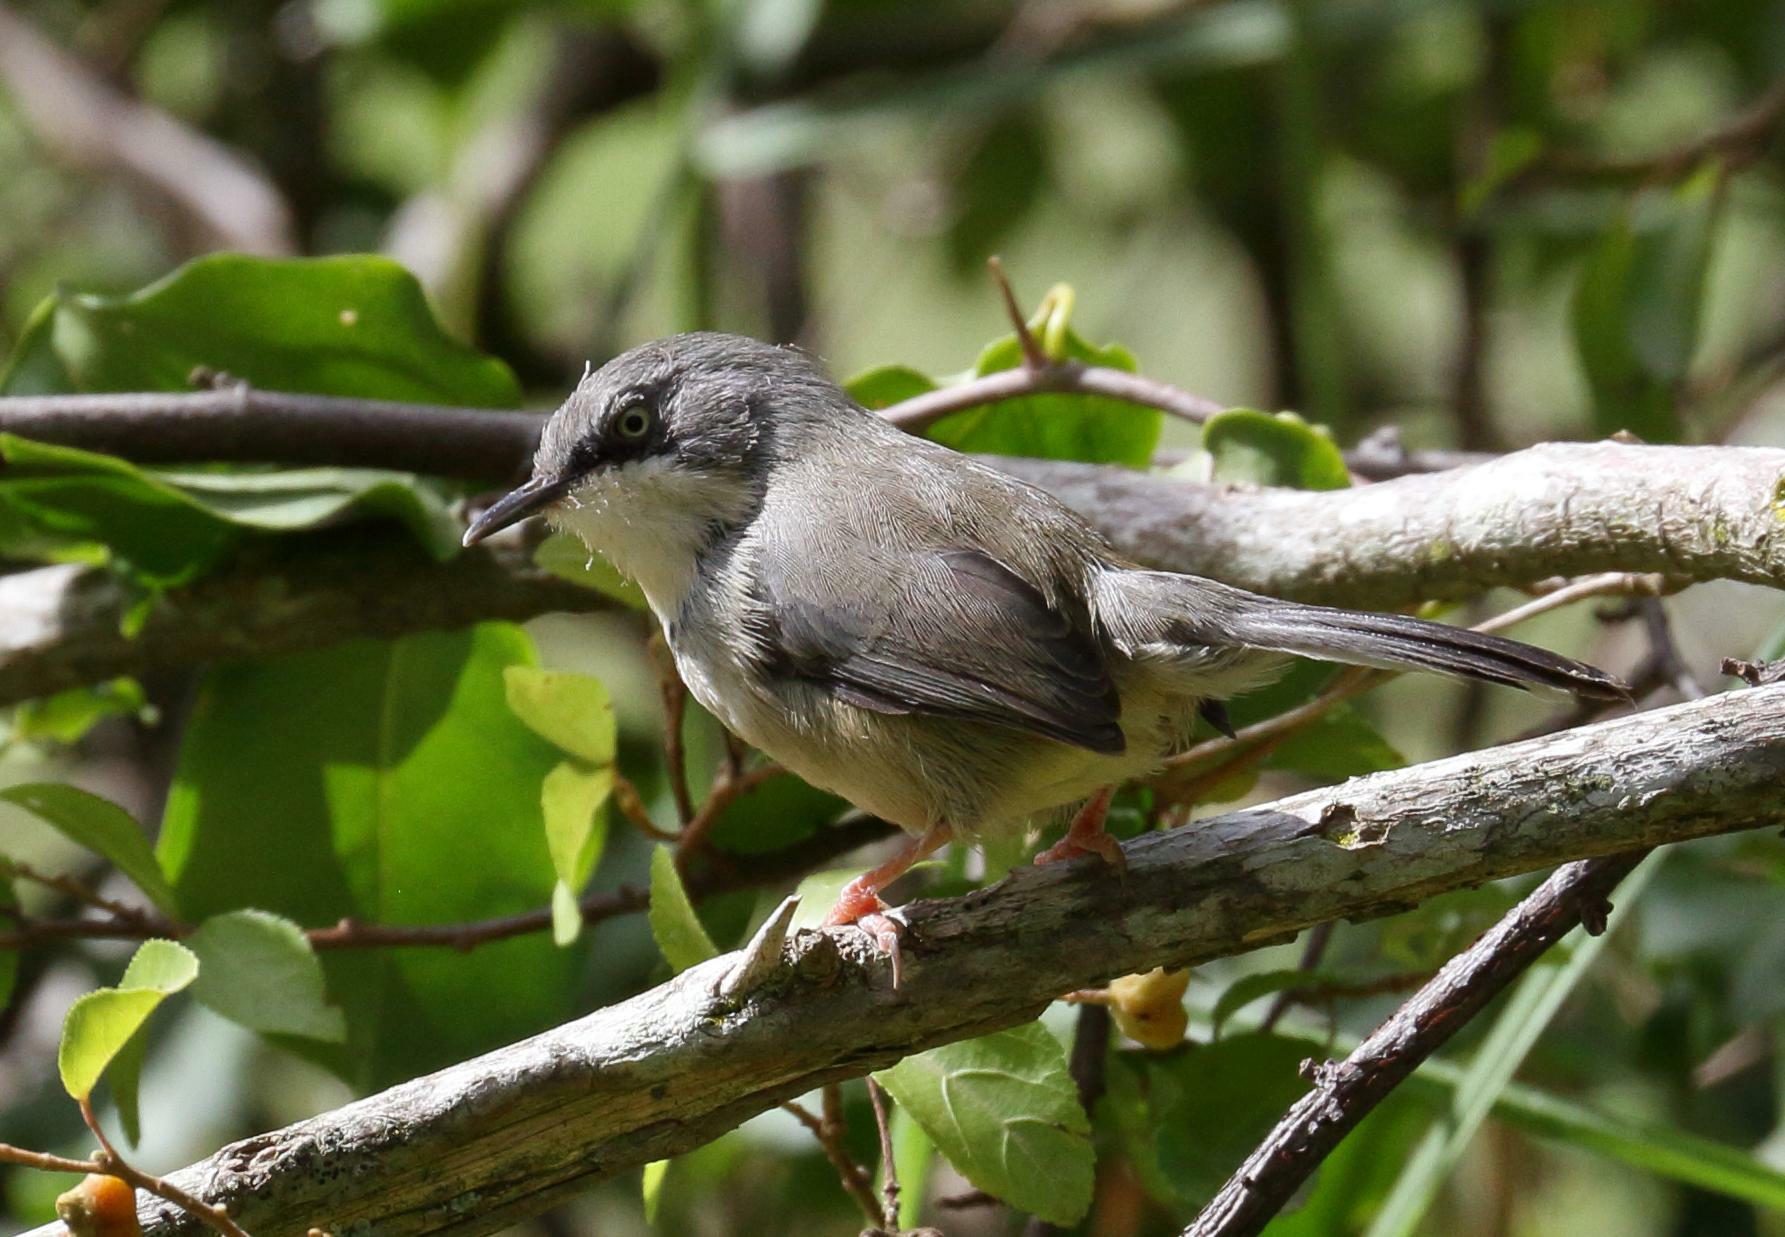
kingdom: Animalia
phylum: Chordata
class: Aves
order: Passeriformes
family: Cisticolidae
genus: Apalis
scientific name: Apalis thoracica
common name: Bar-throated apalis
